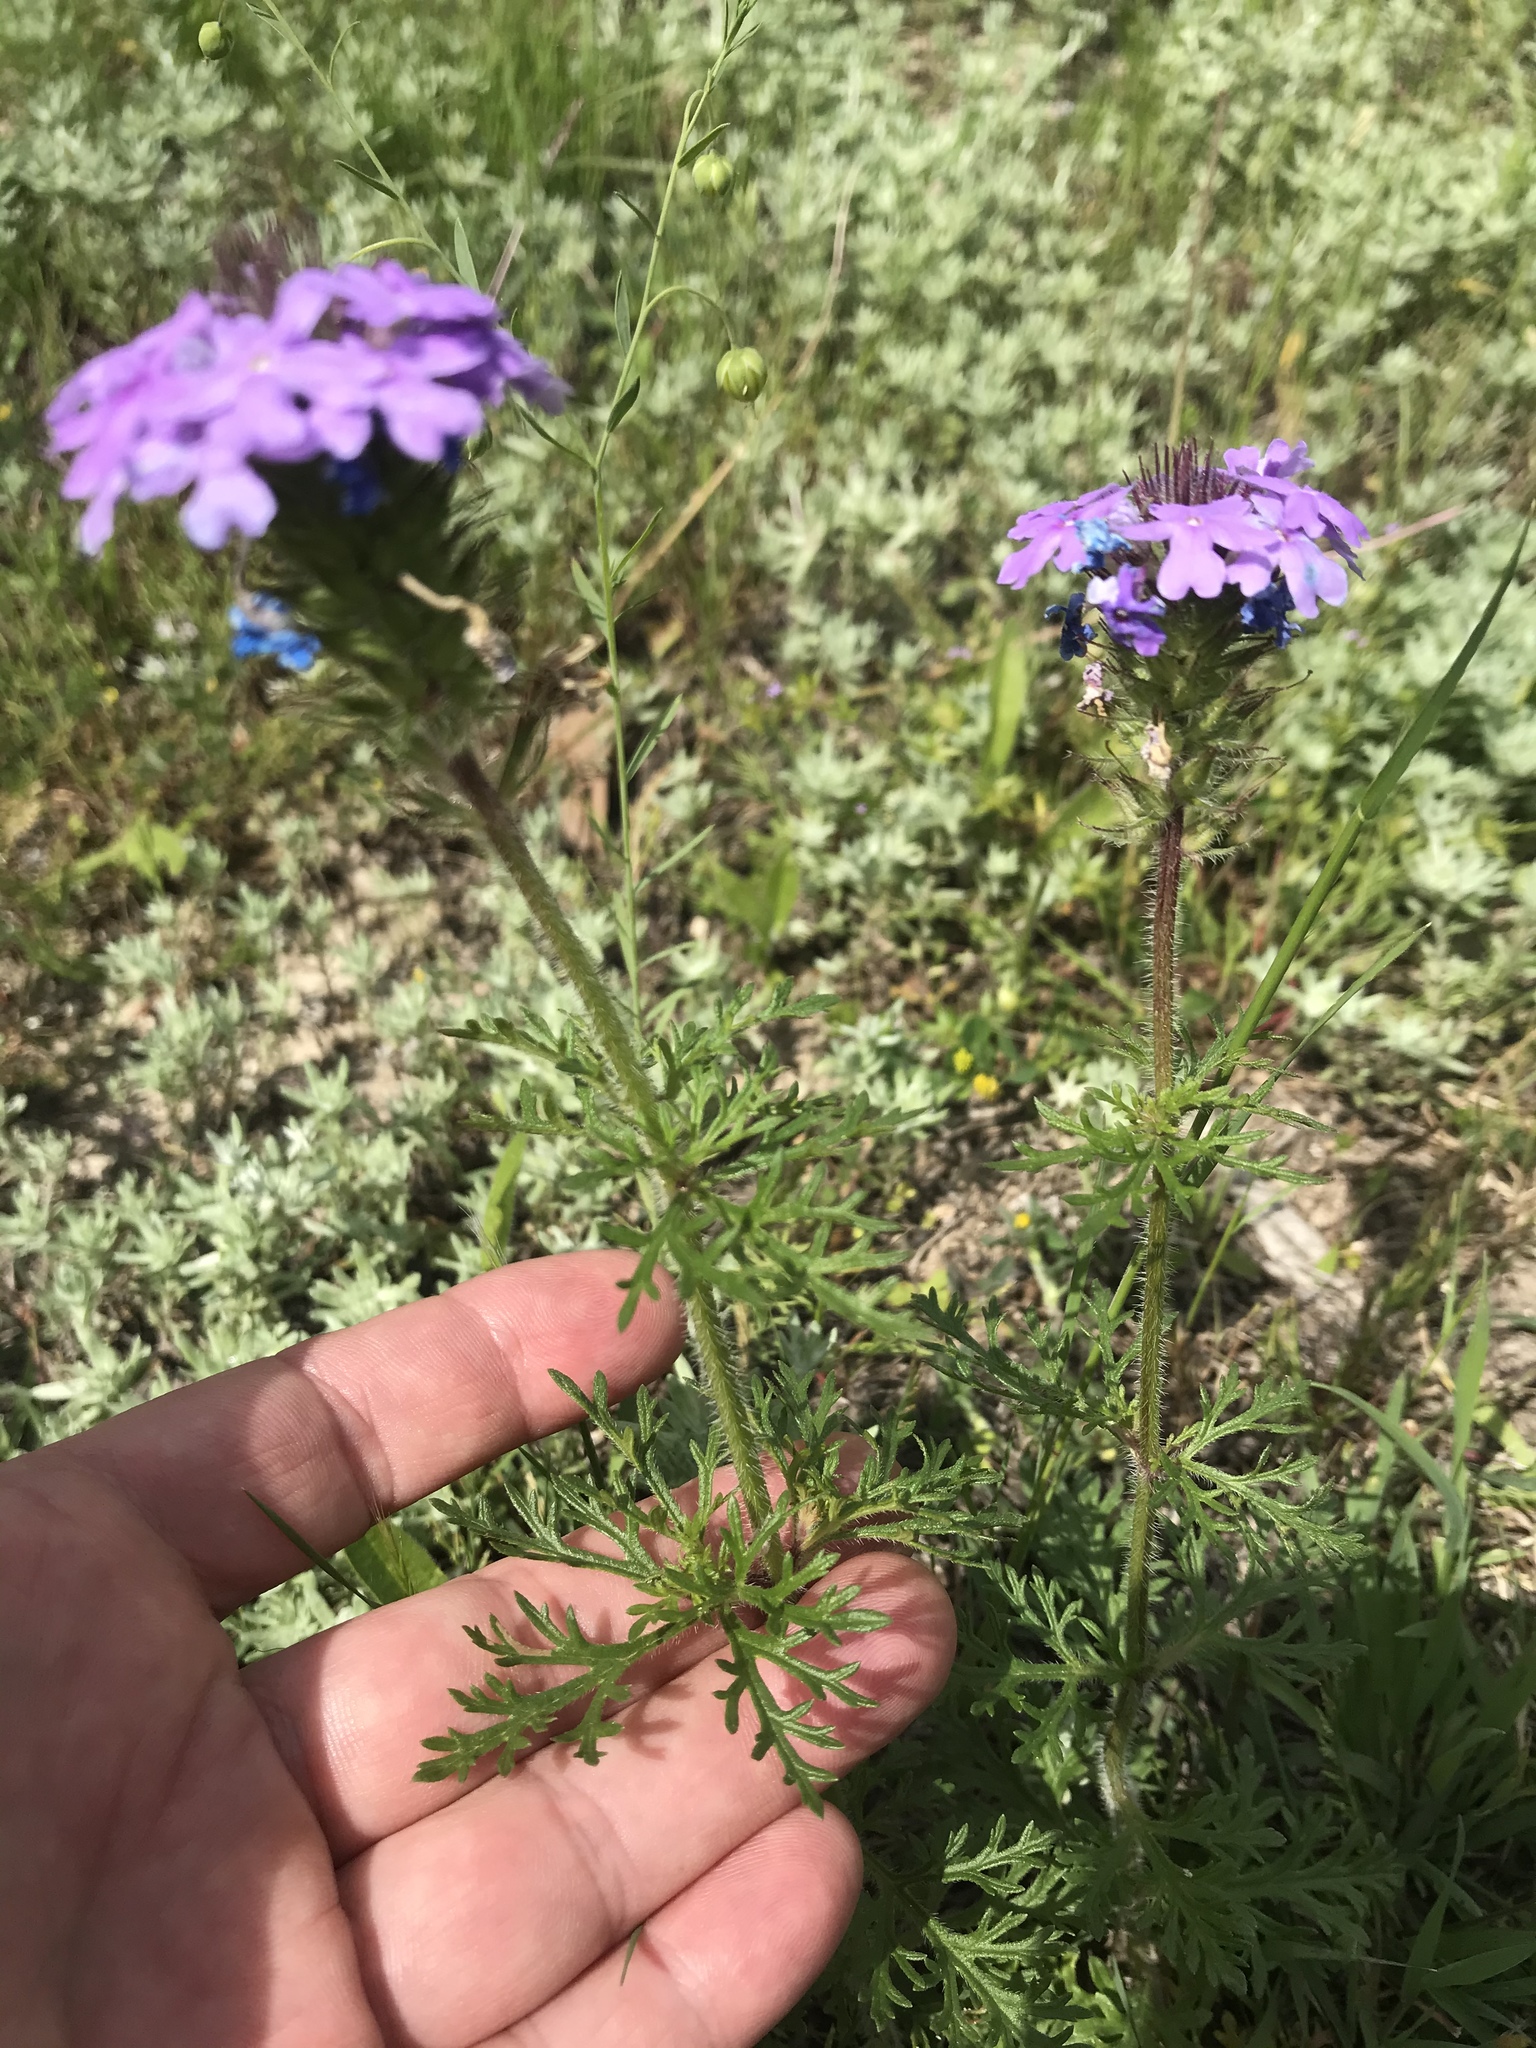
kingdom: Plantae
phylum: Tracheophyta
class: Magnoliopsida
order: Lamiales
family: Verbenaceae
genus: Verbena
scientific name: Verbena bipinnatifida
